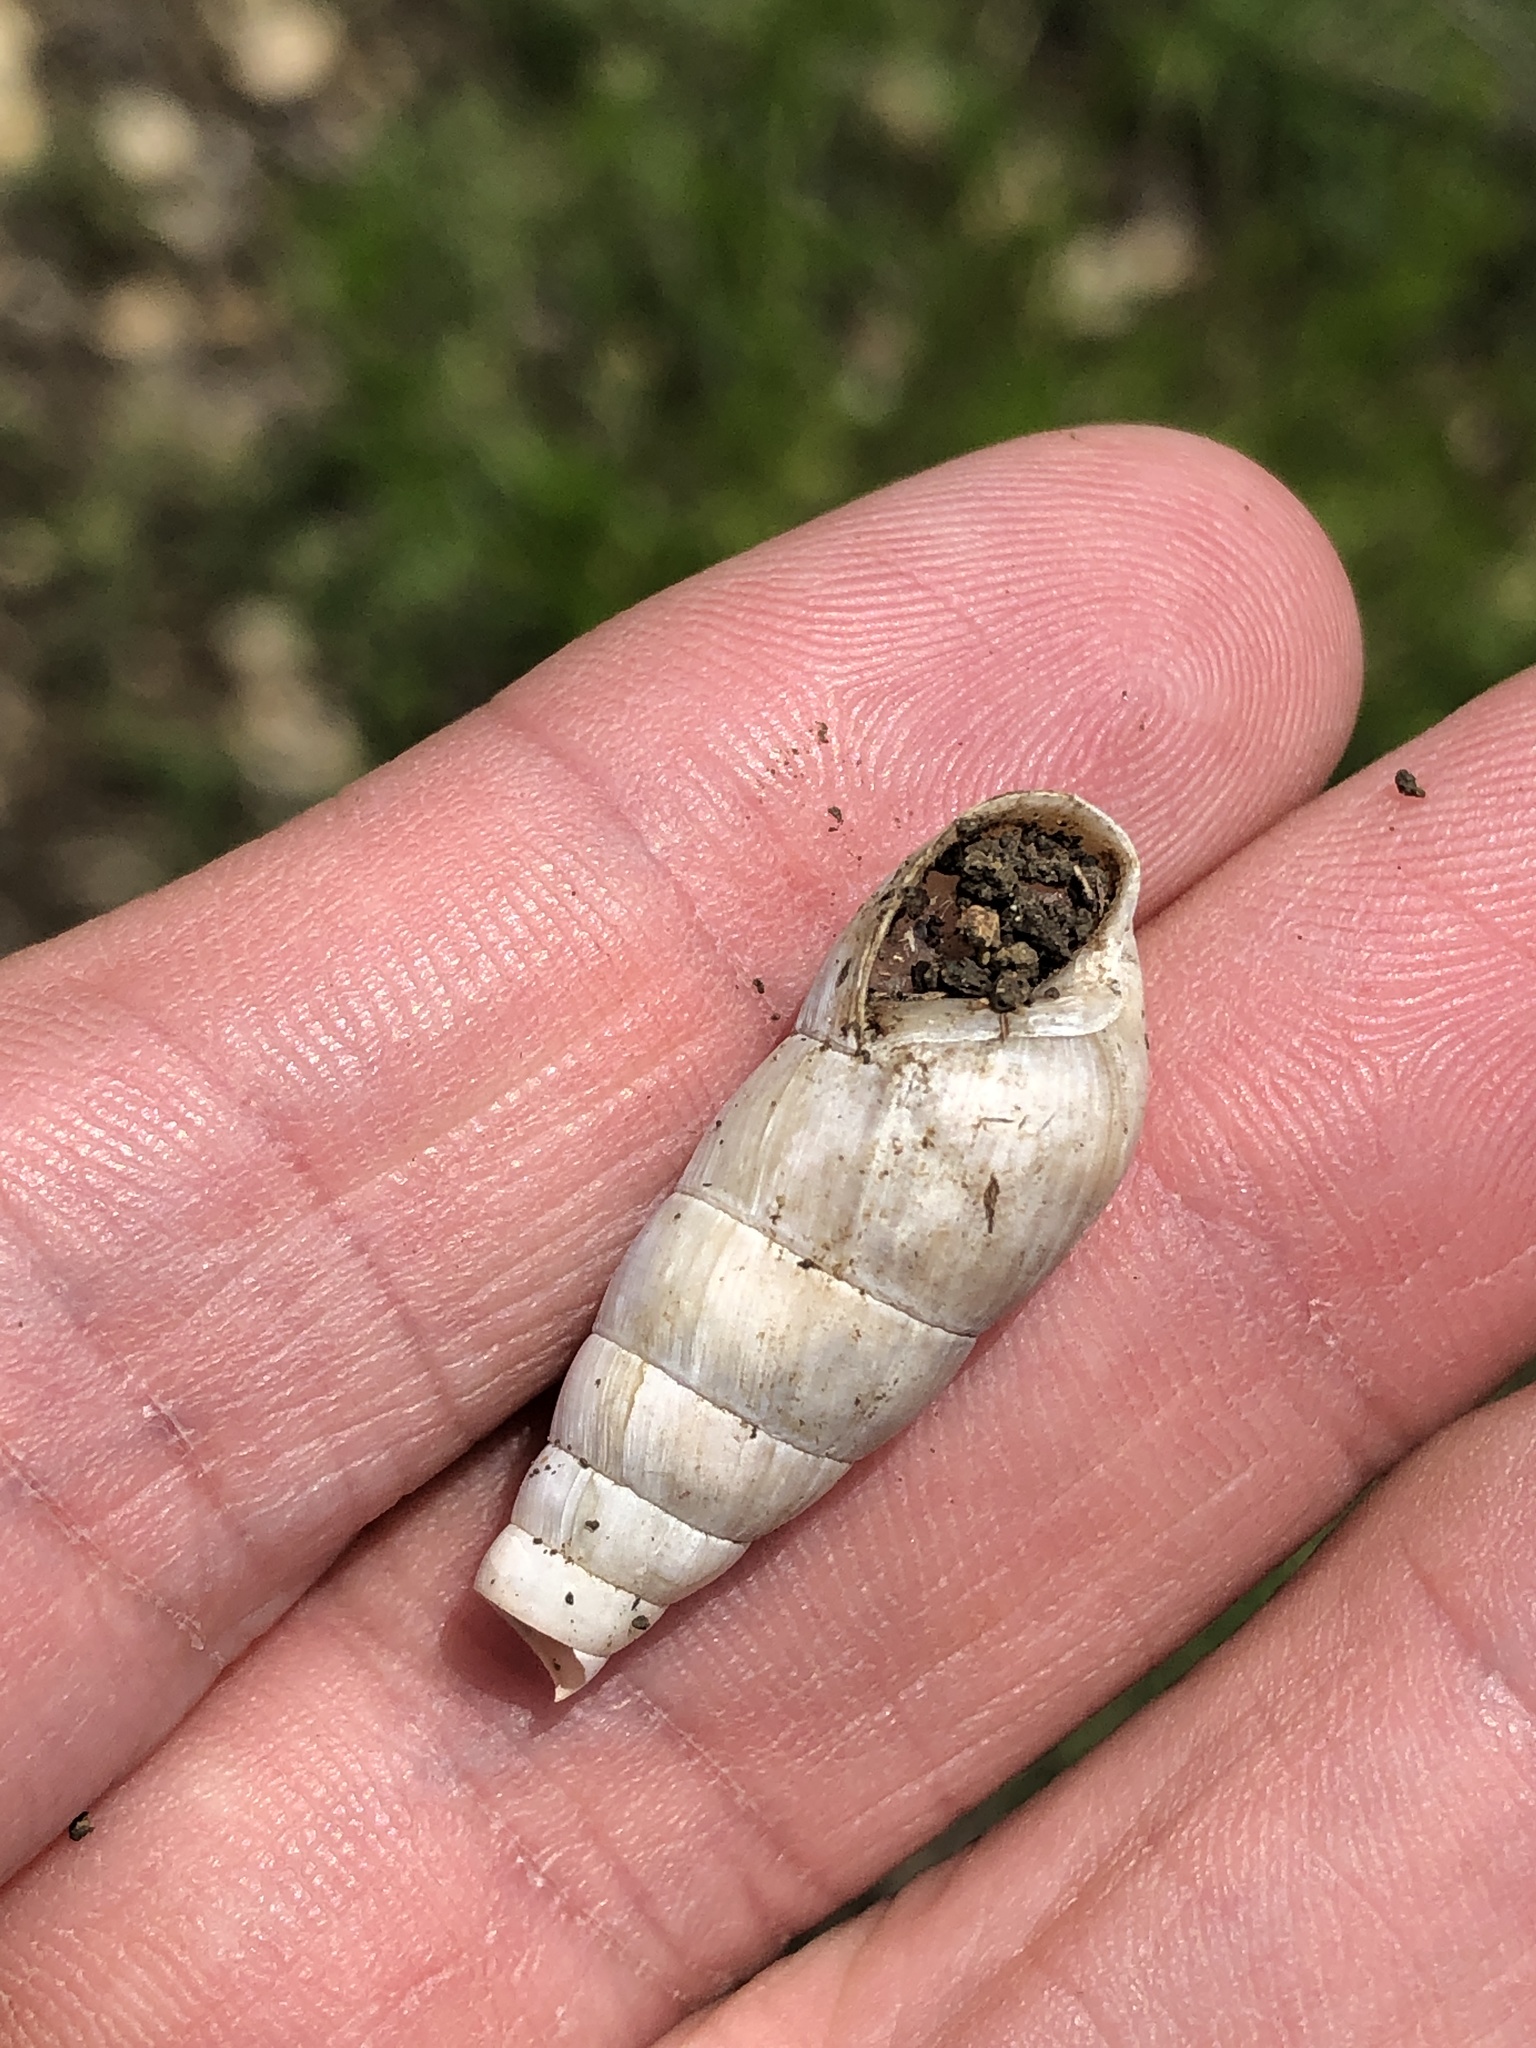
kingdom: Animalia
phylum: Mollusca
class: Gastropoda
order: Stylommatophora
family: Achatinidae
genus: Rumina
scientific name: Rumina decollata
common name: Decollate snail
